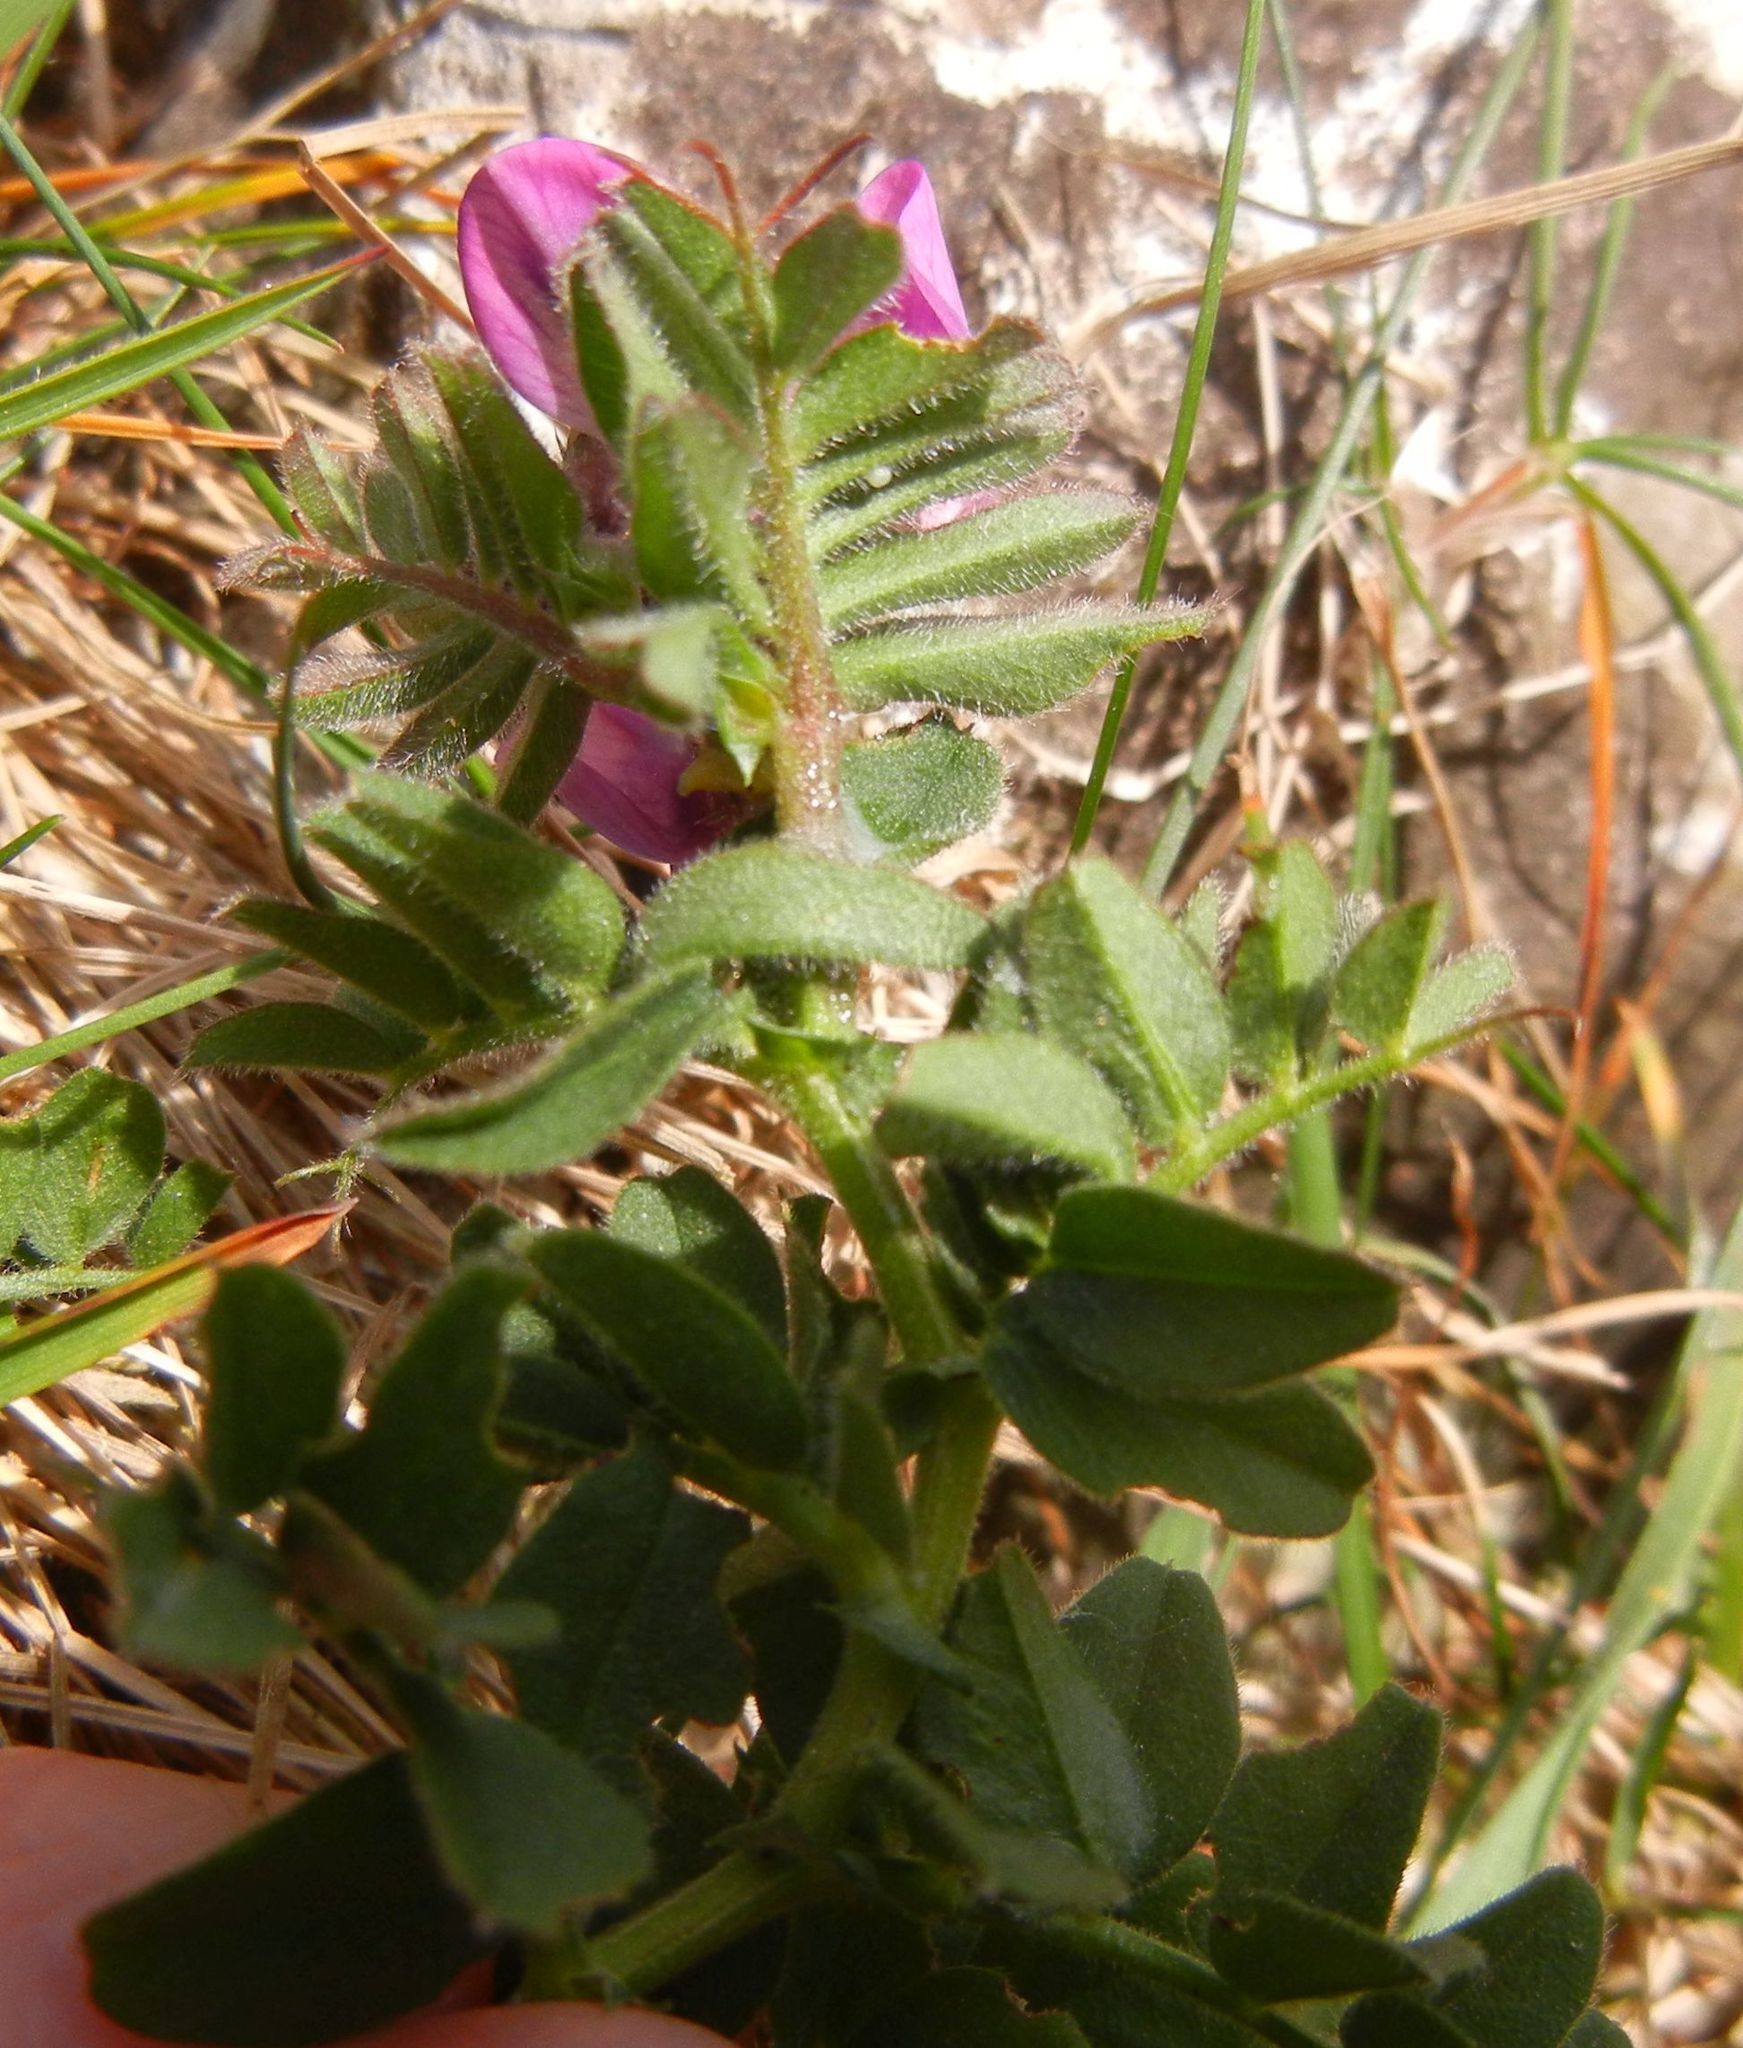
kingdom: Plantae
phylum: Tracheophyta
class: Magnoliopsida
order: Fabales
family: Fabaceae
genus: Vicia
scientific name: Vicia sativa
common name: Garden vetch
